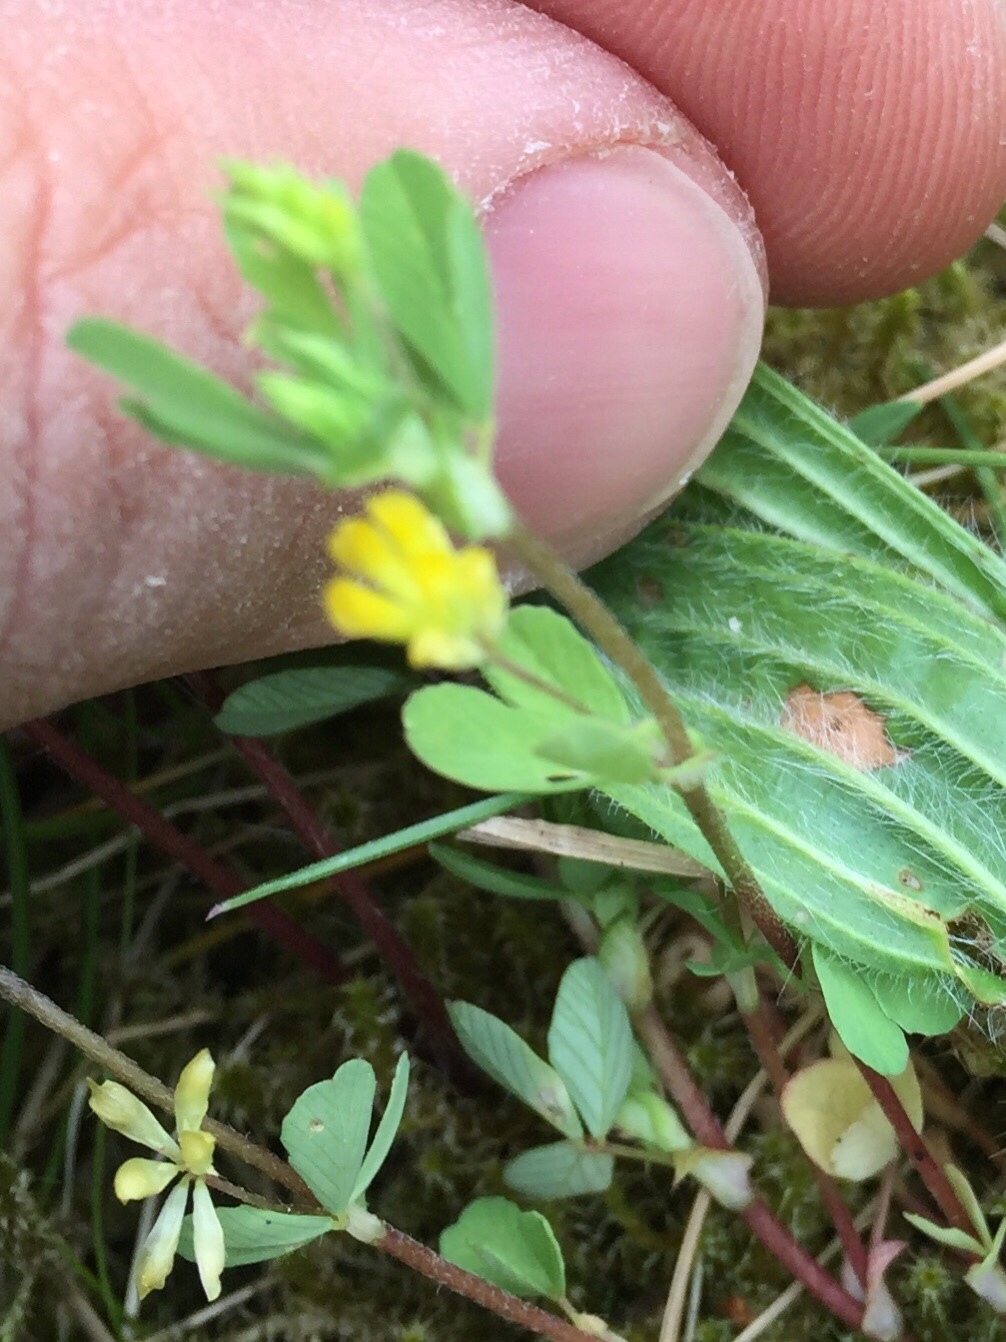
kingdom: Plantae
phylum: Tracheophyta
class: Magnoliopsida
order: Fabales
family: Fabaceae
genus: Trifolium
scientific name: Trifolium campestre
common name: Field clover
